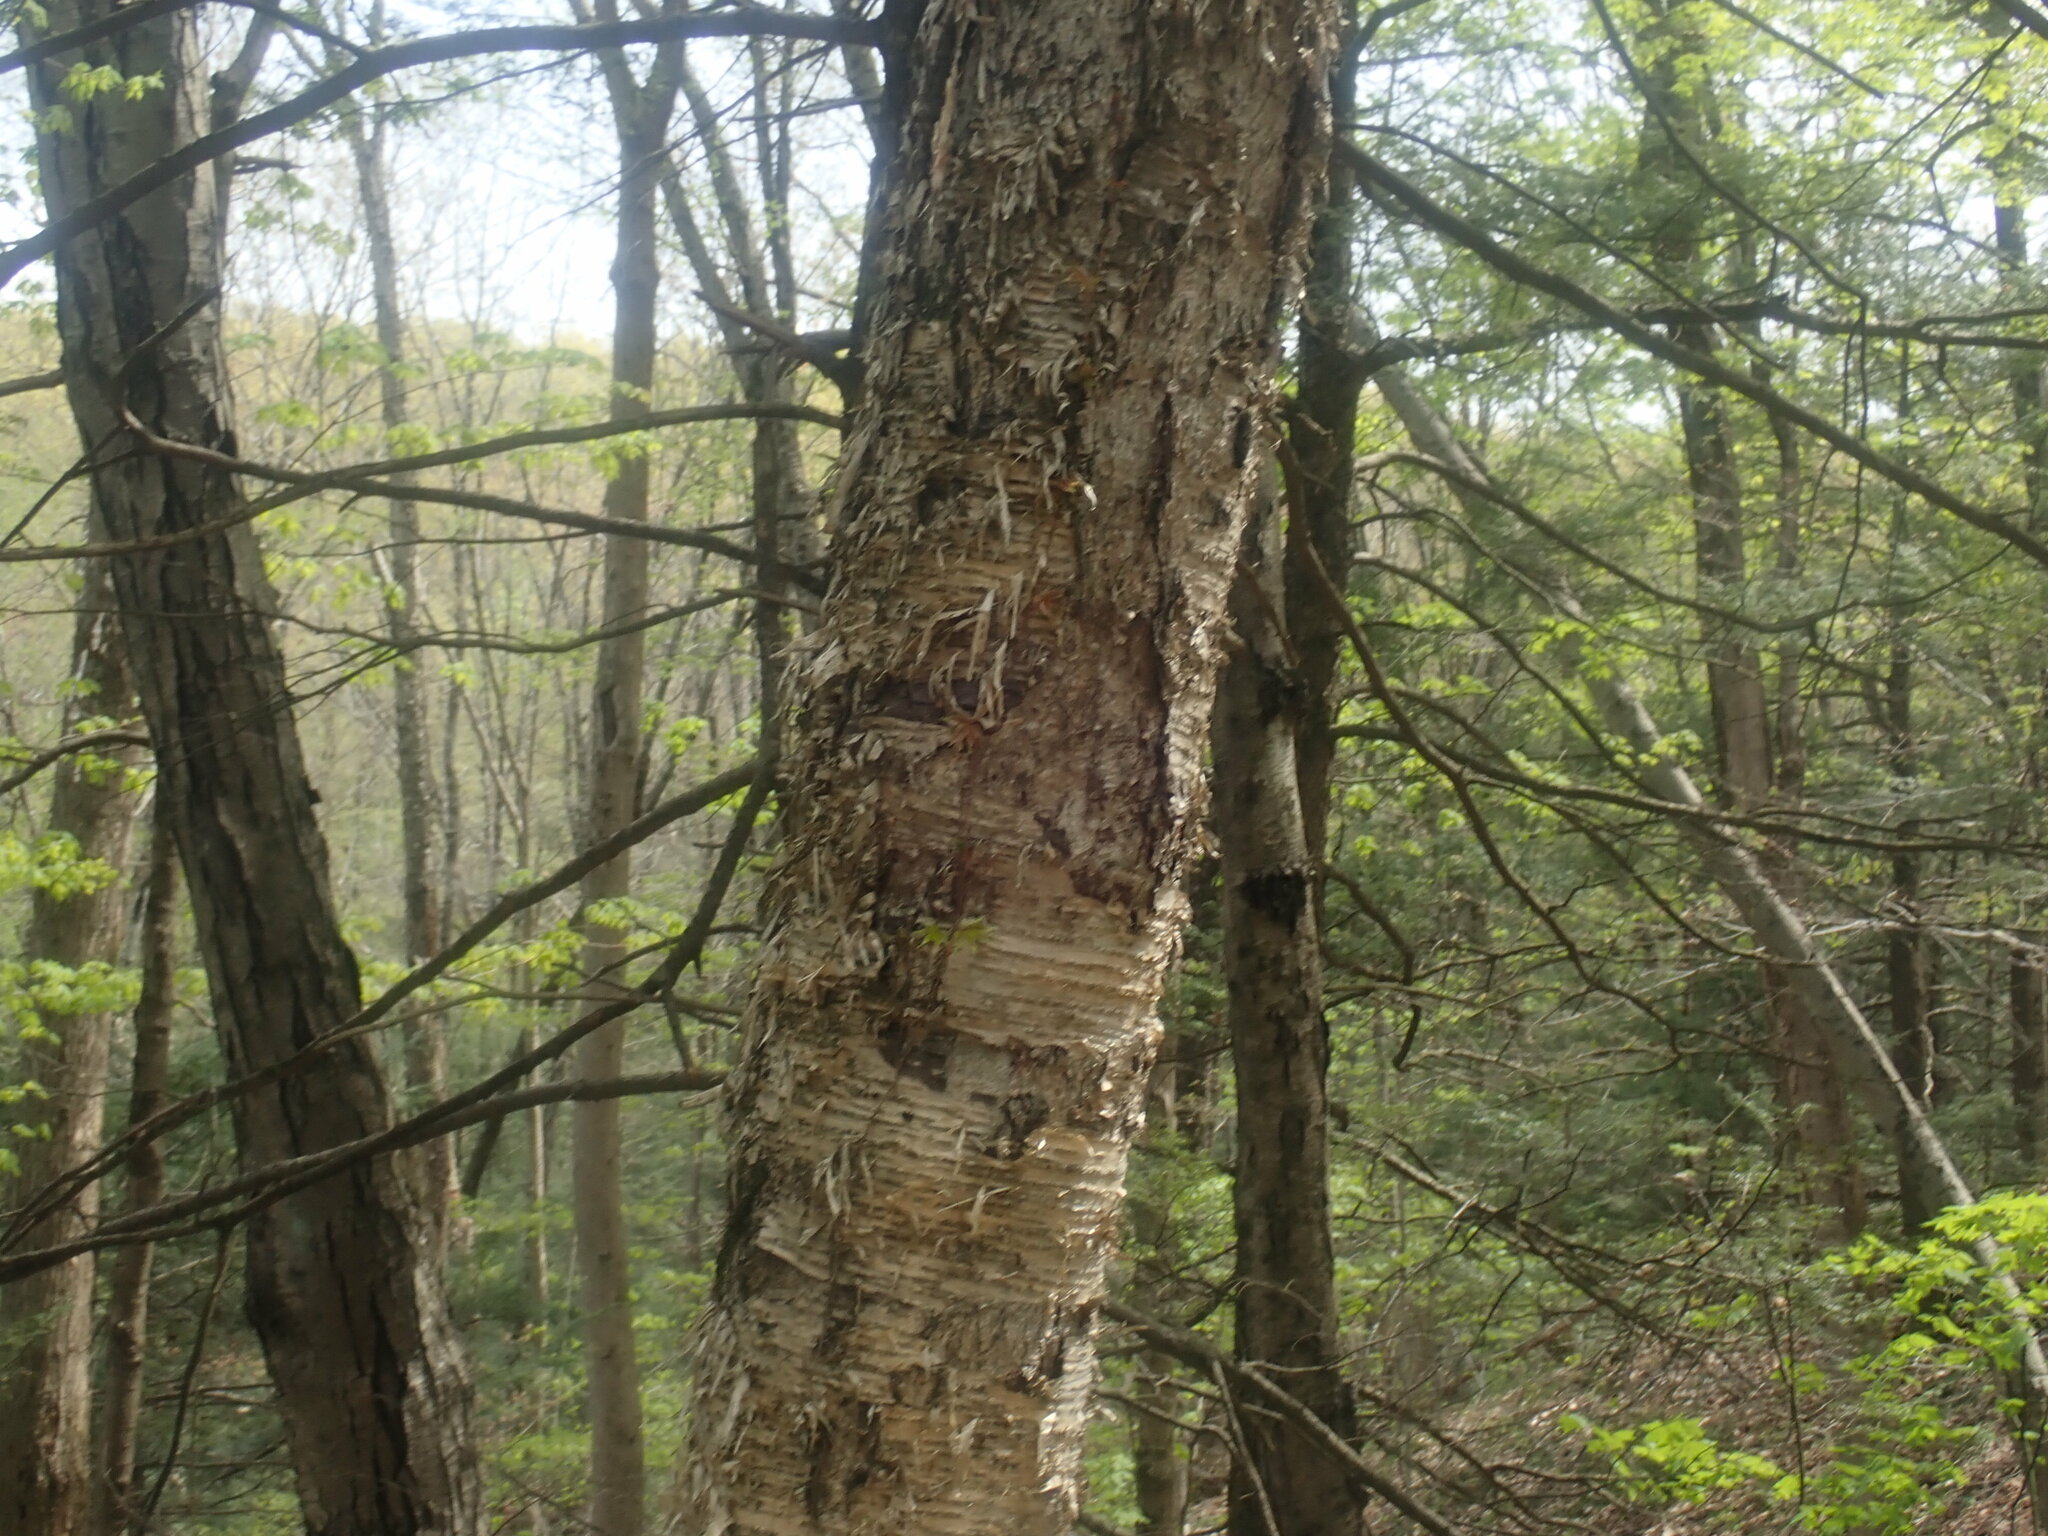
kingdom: Plantae
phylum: Tracheophyta
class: Magnoliopsida
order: Fagales
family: Betulaceae
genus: Betula
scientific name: Betula alleghaniensis
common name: Yellow birch
